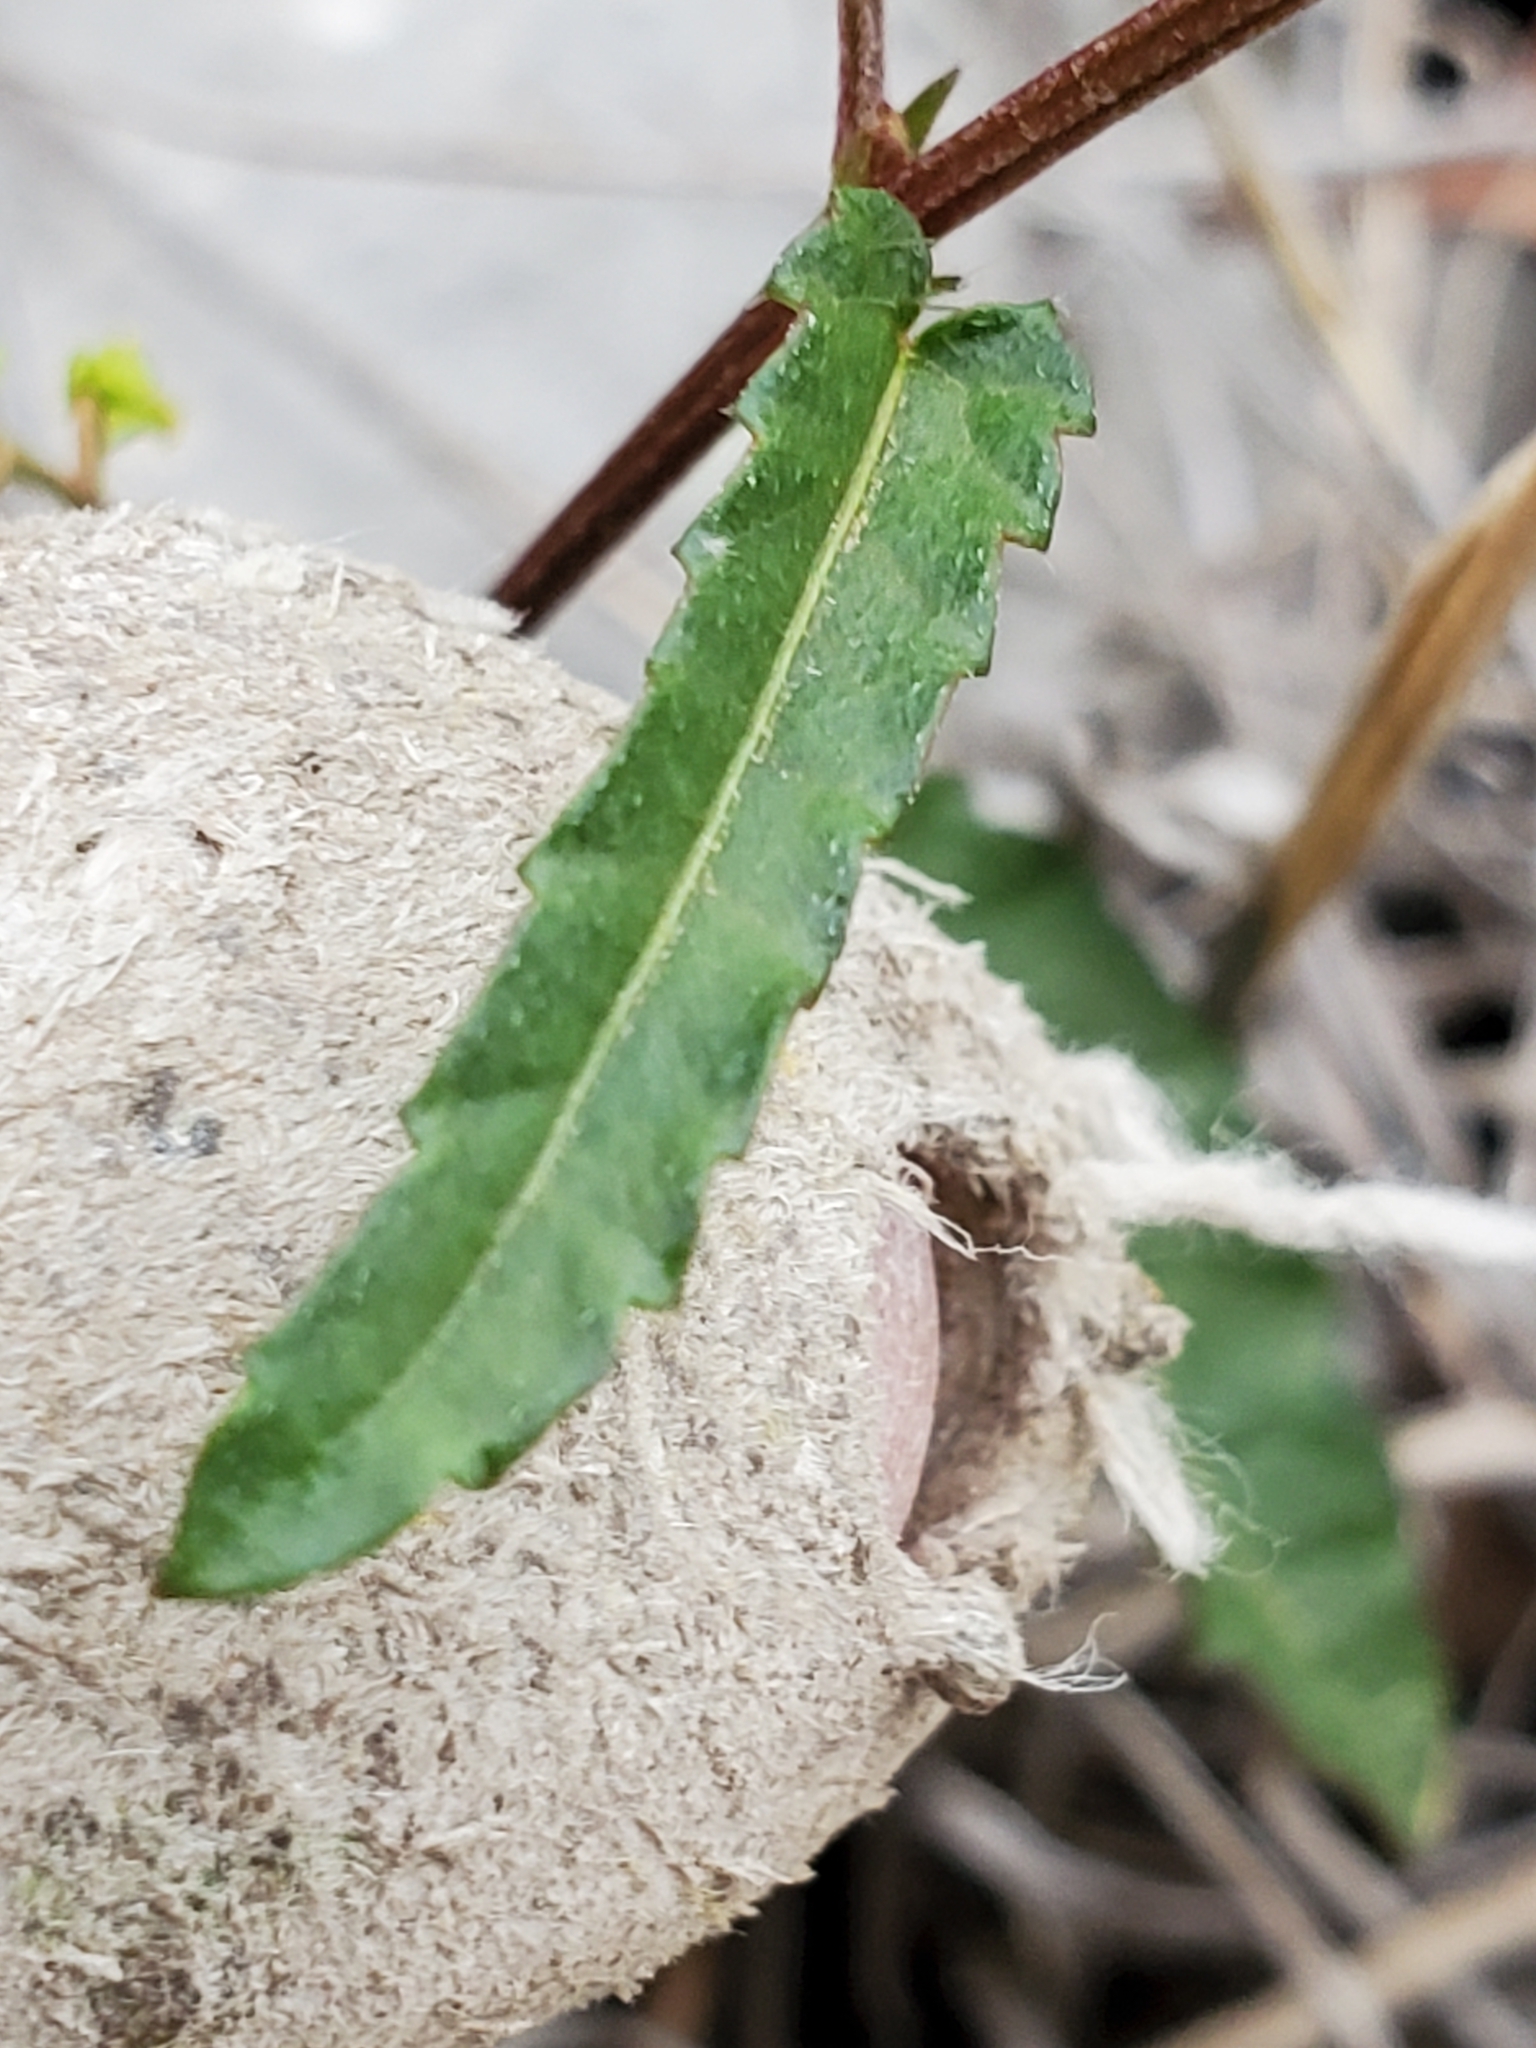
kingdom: Plantae
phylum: Tracheophyta
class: Magnoliopsida
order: Malpighiales
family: Euphorbiaceae
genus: Tragia
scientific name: Tragia ramosa
